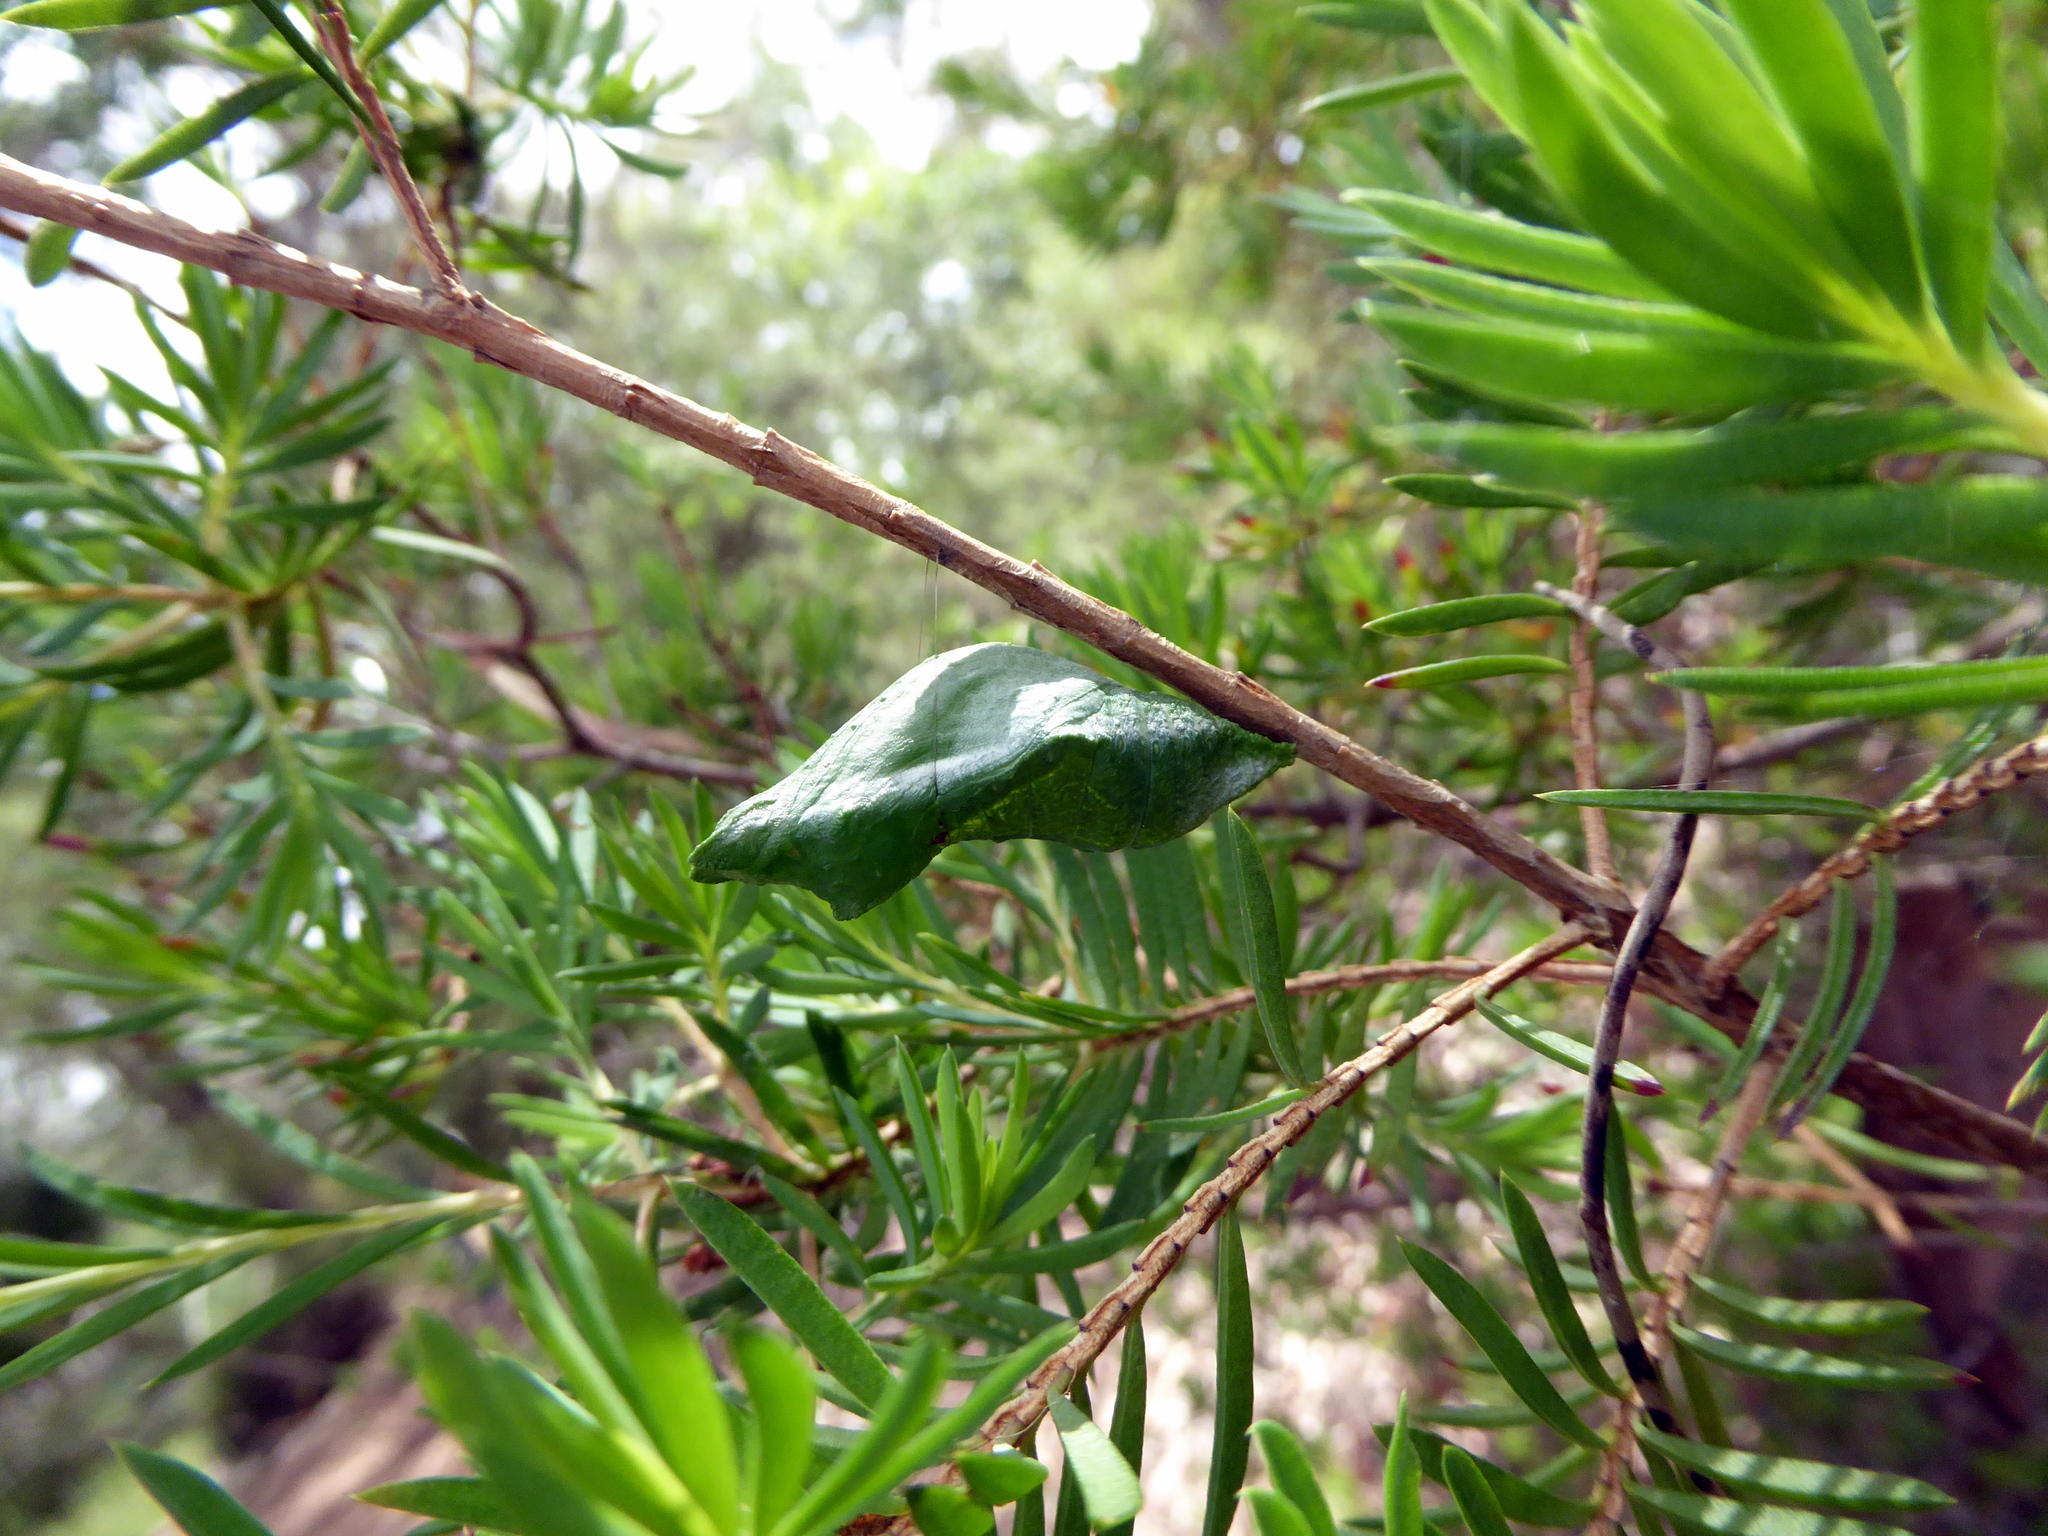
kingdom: Animalia
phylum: Arthropoda
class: Insecta
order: Lepidoptera
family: Papilionidae
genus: Papilio
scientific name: Papilio aegeus
